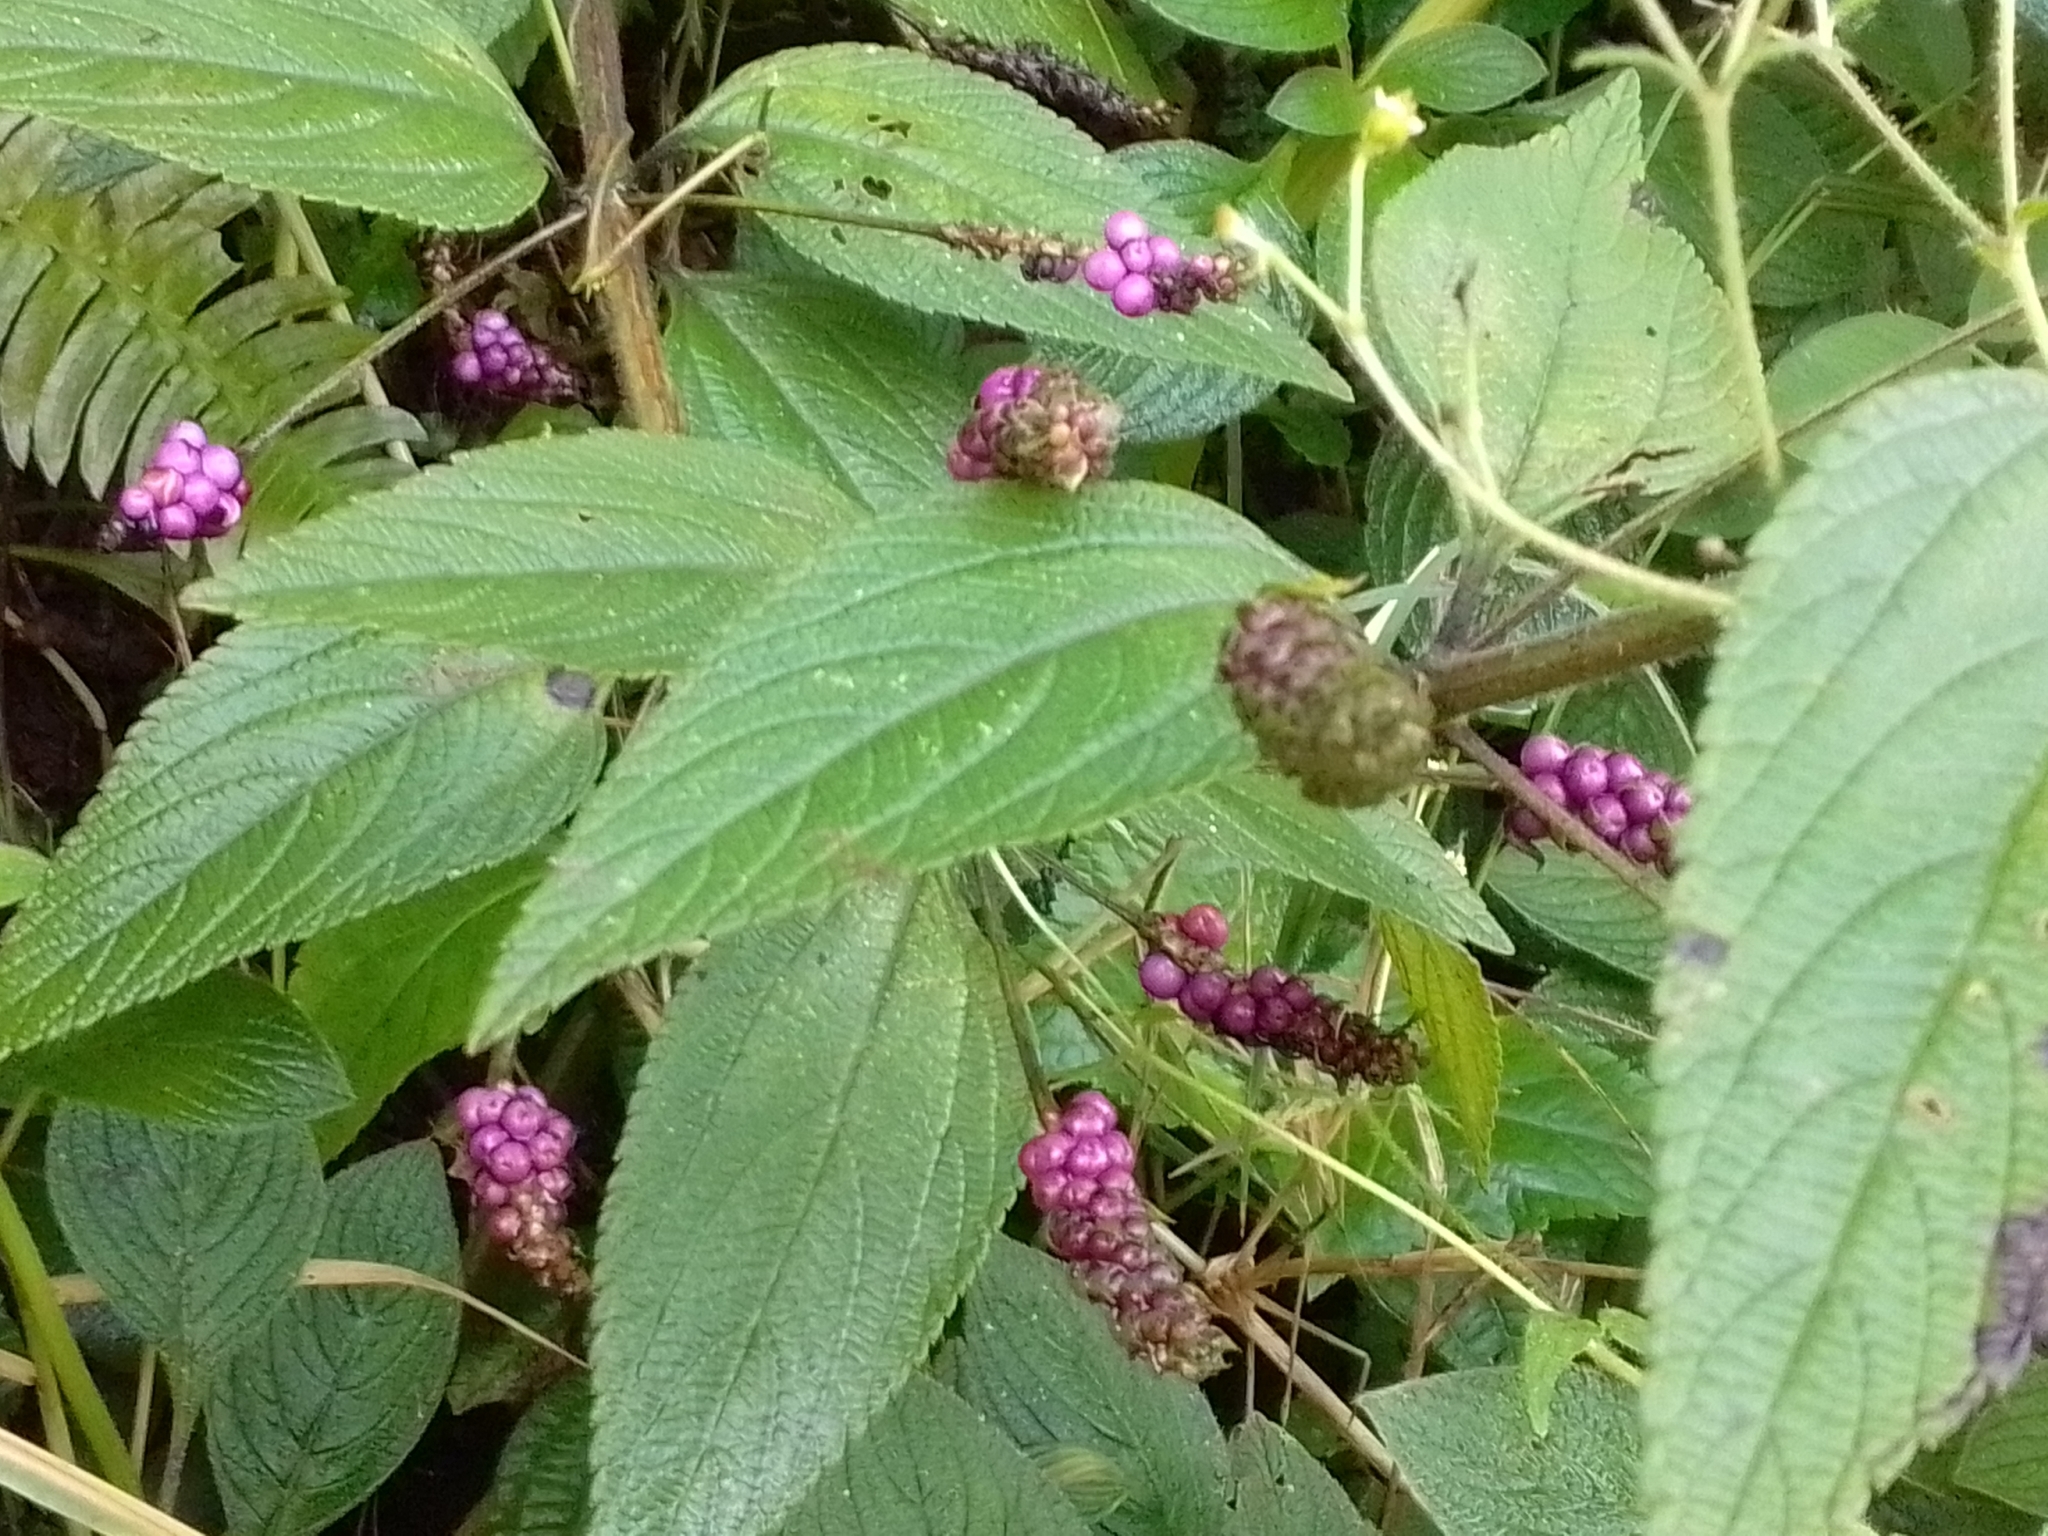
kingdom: Plantae
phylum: Tracheophyta
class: Magnoliopsida
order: Lamiales
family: Verbenaceae
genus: Lantana
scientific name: Lantana trifolia
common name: Sweet-sage
